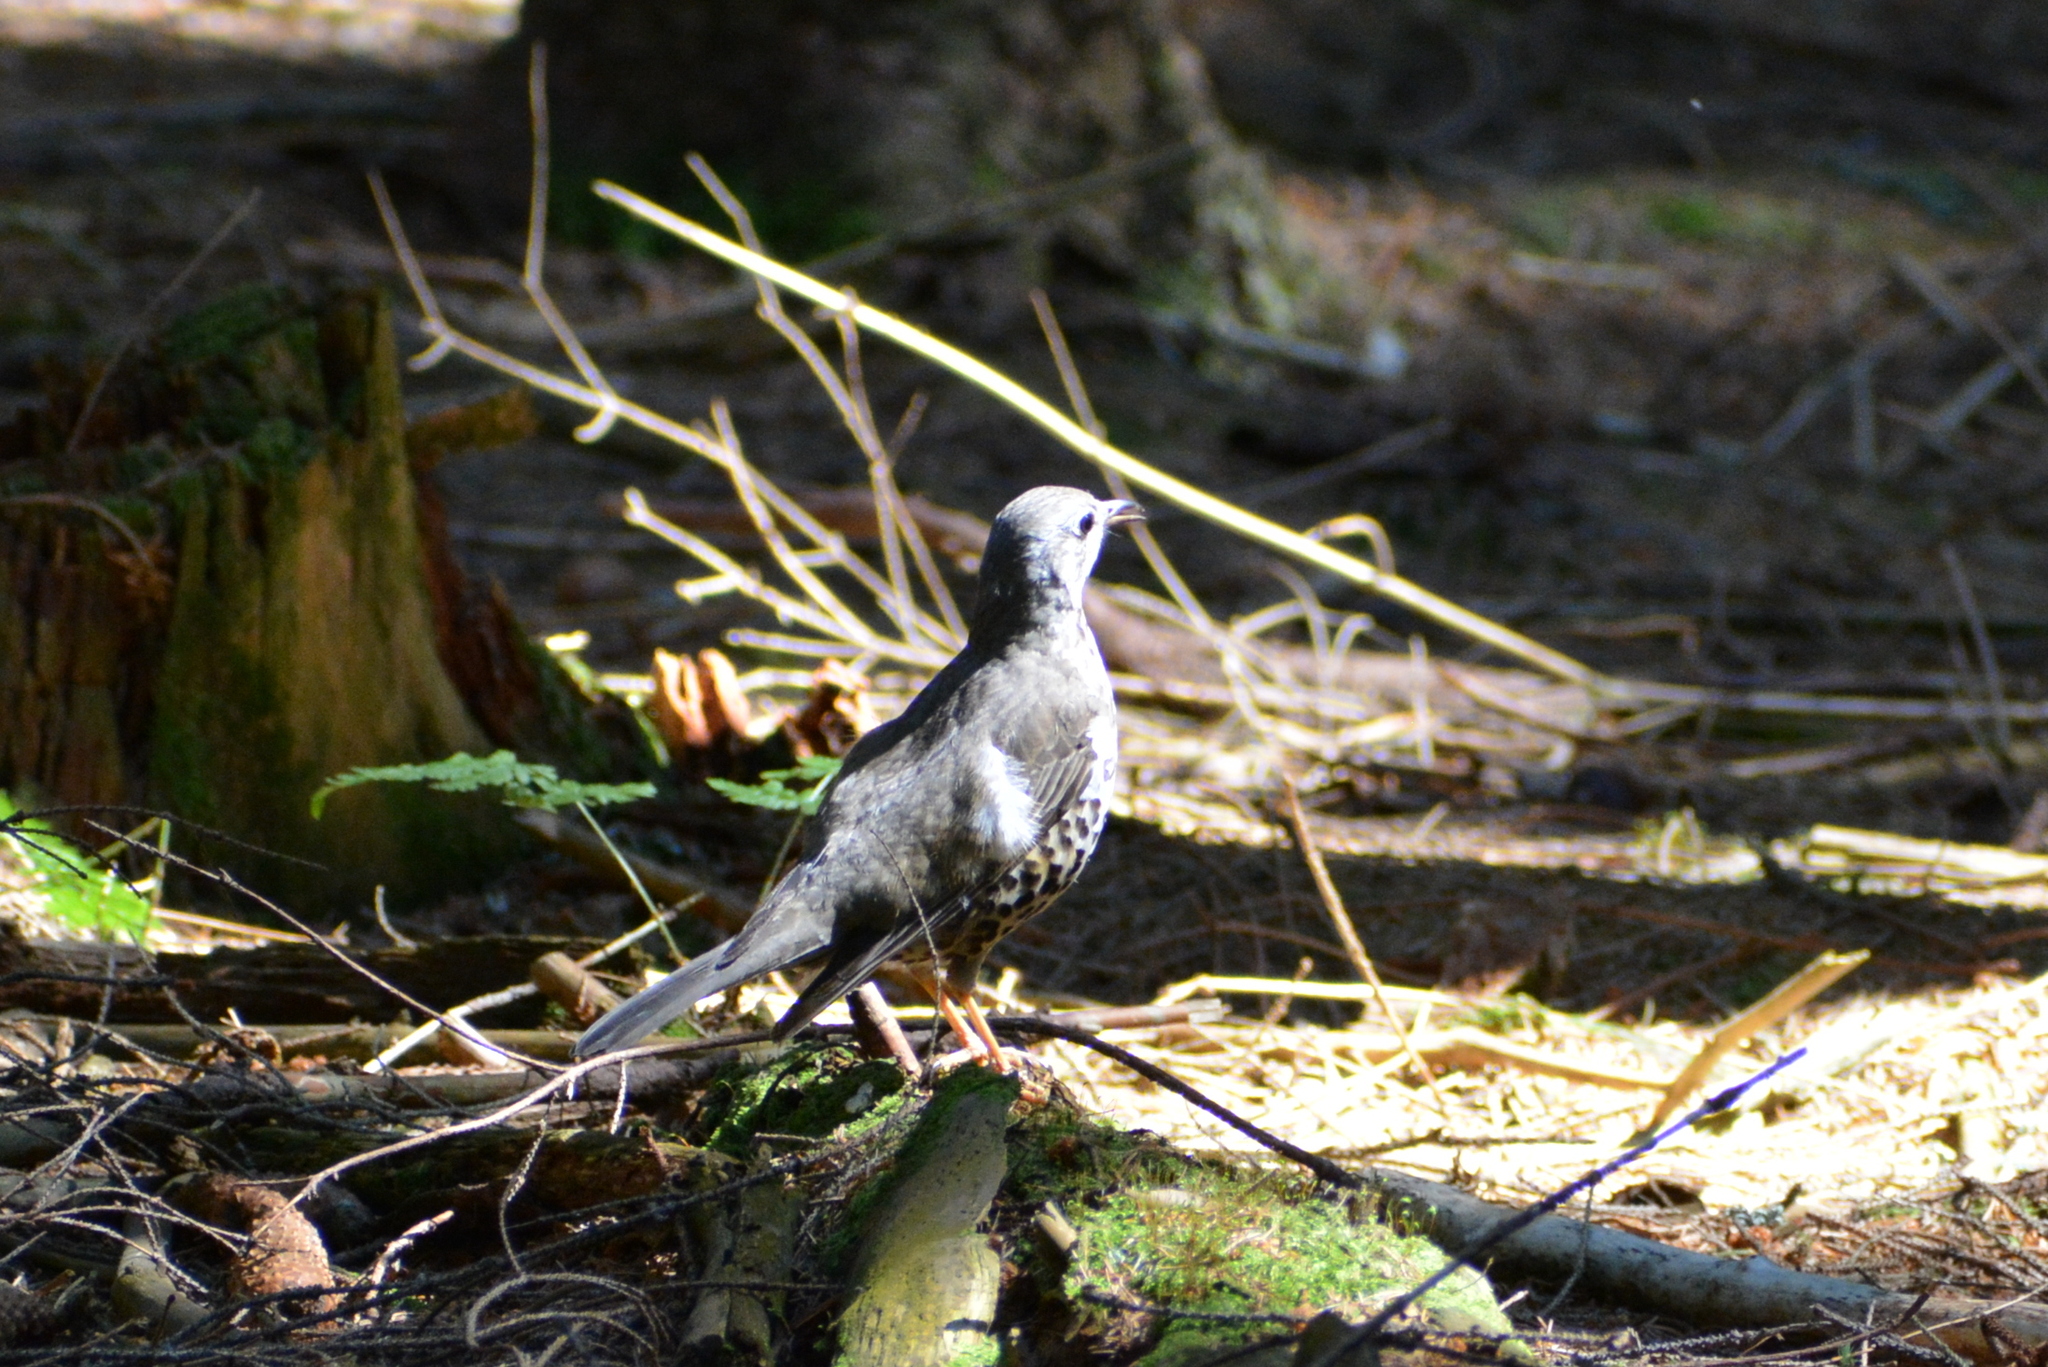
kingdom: Animalia
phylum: Chordata
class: Aves
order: Passeriformes
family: Turdidae
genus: Turdus
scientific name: Turdus viscivorus
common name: Mistle thrush
